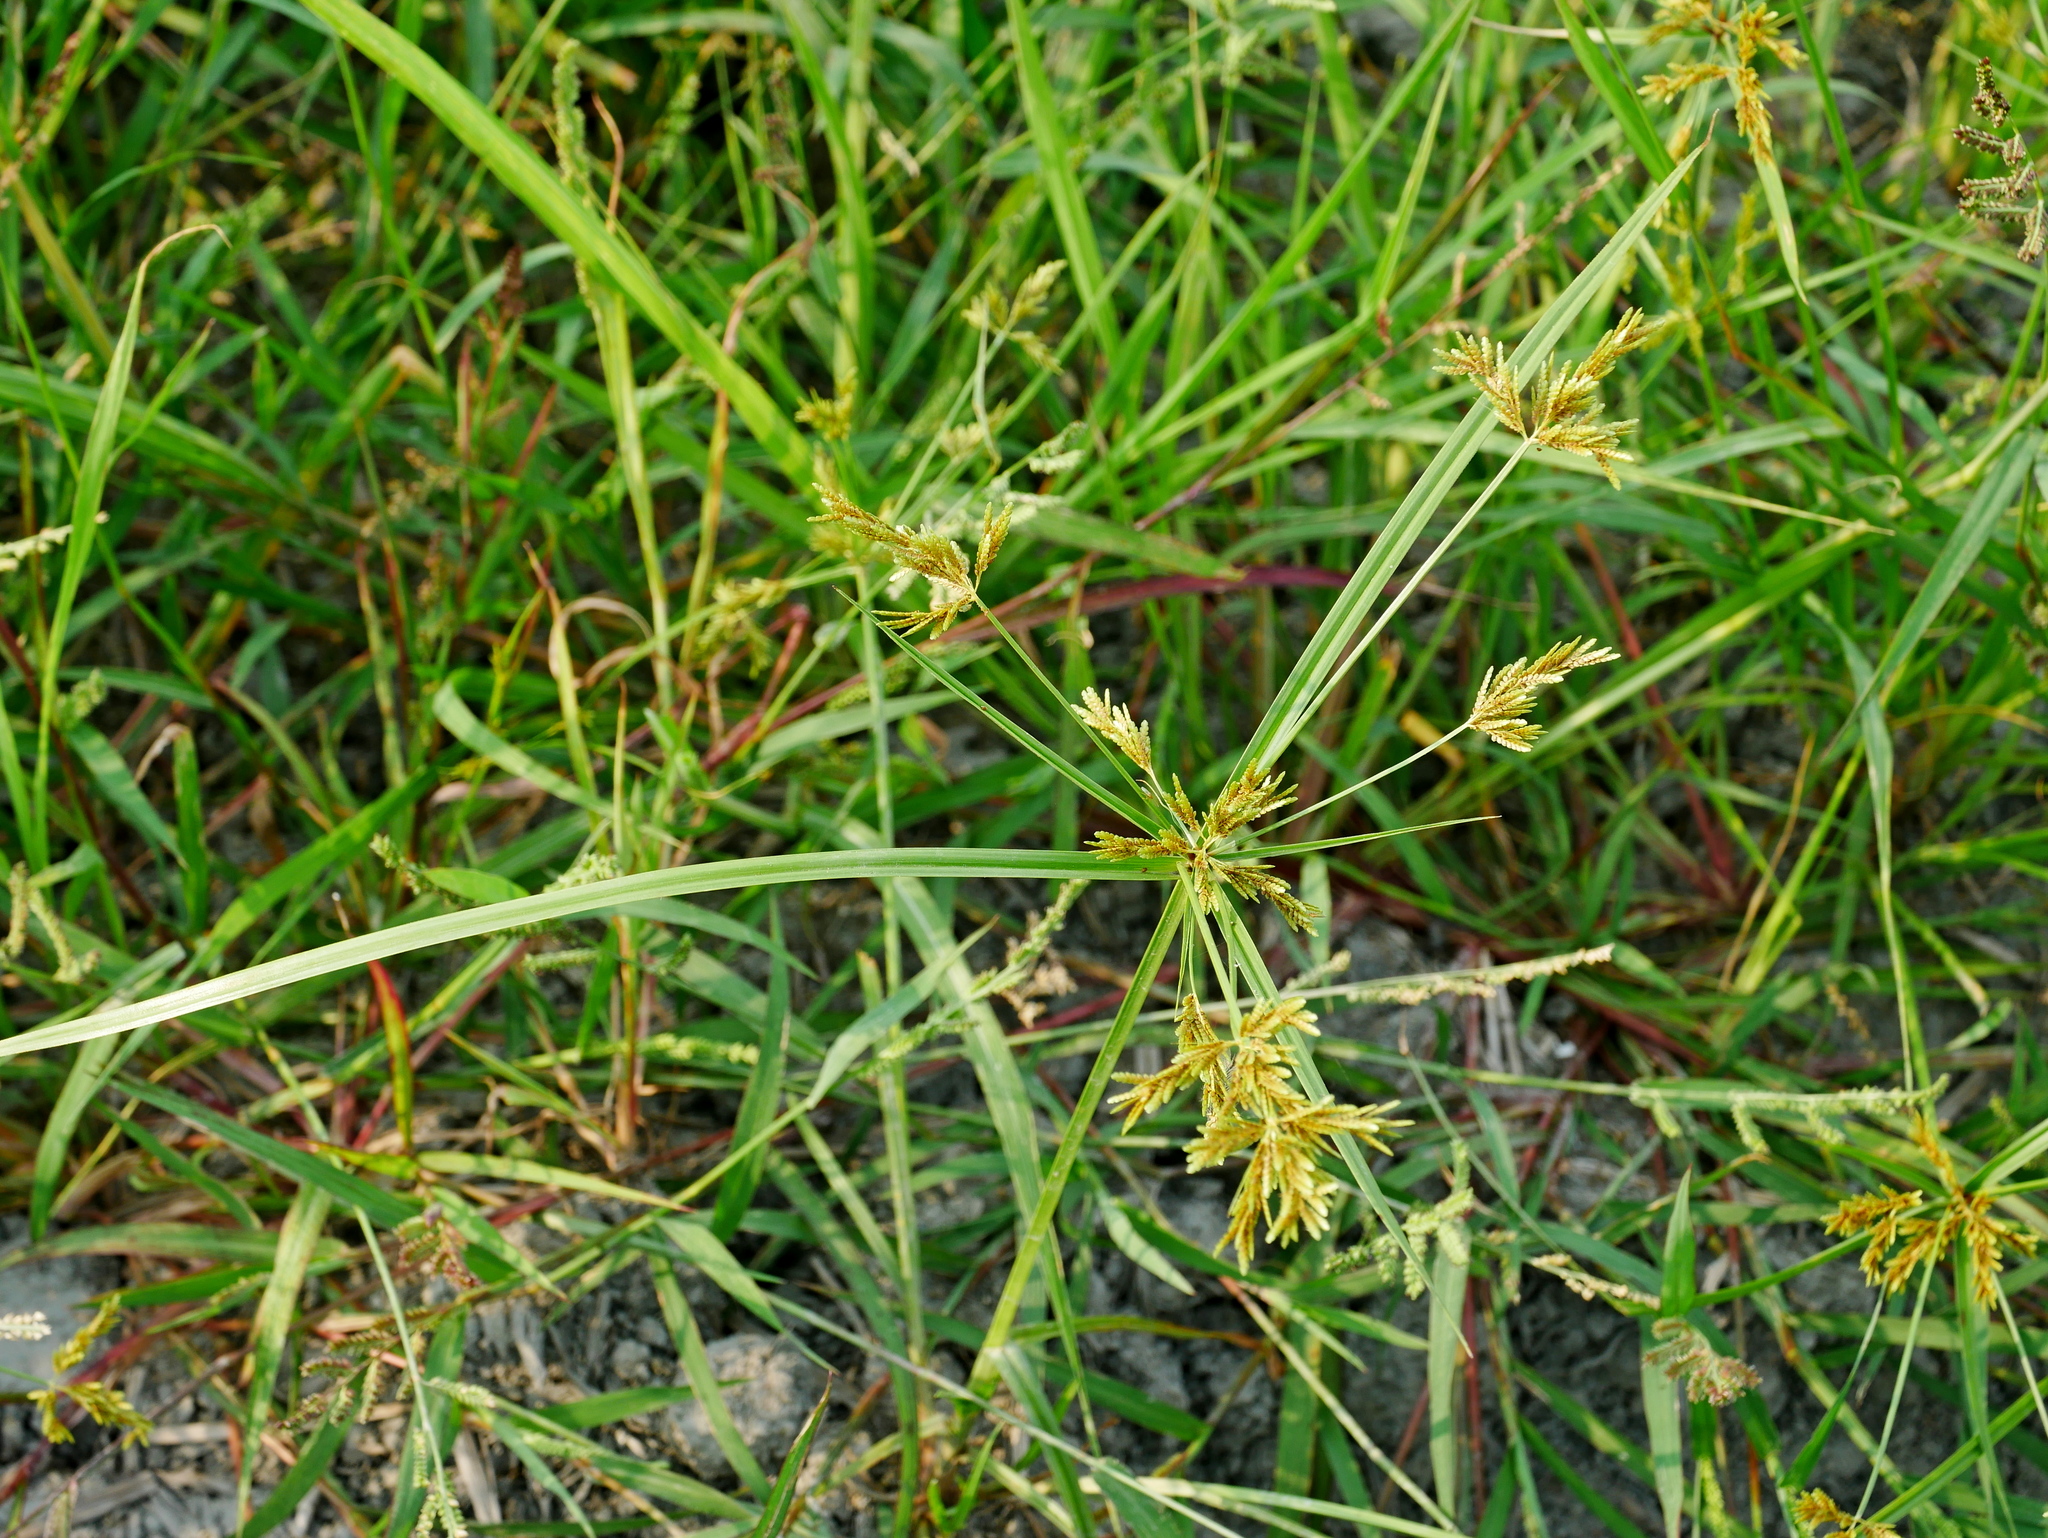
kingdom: Plantae
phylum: Tracheophyta
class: Liliopsida
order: Poales
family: Cyperaceae
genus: Cyperus
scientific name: Cyperus iria
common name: Ricefield flatsedge
